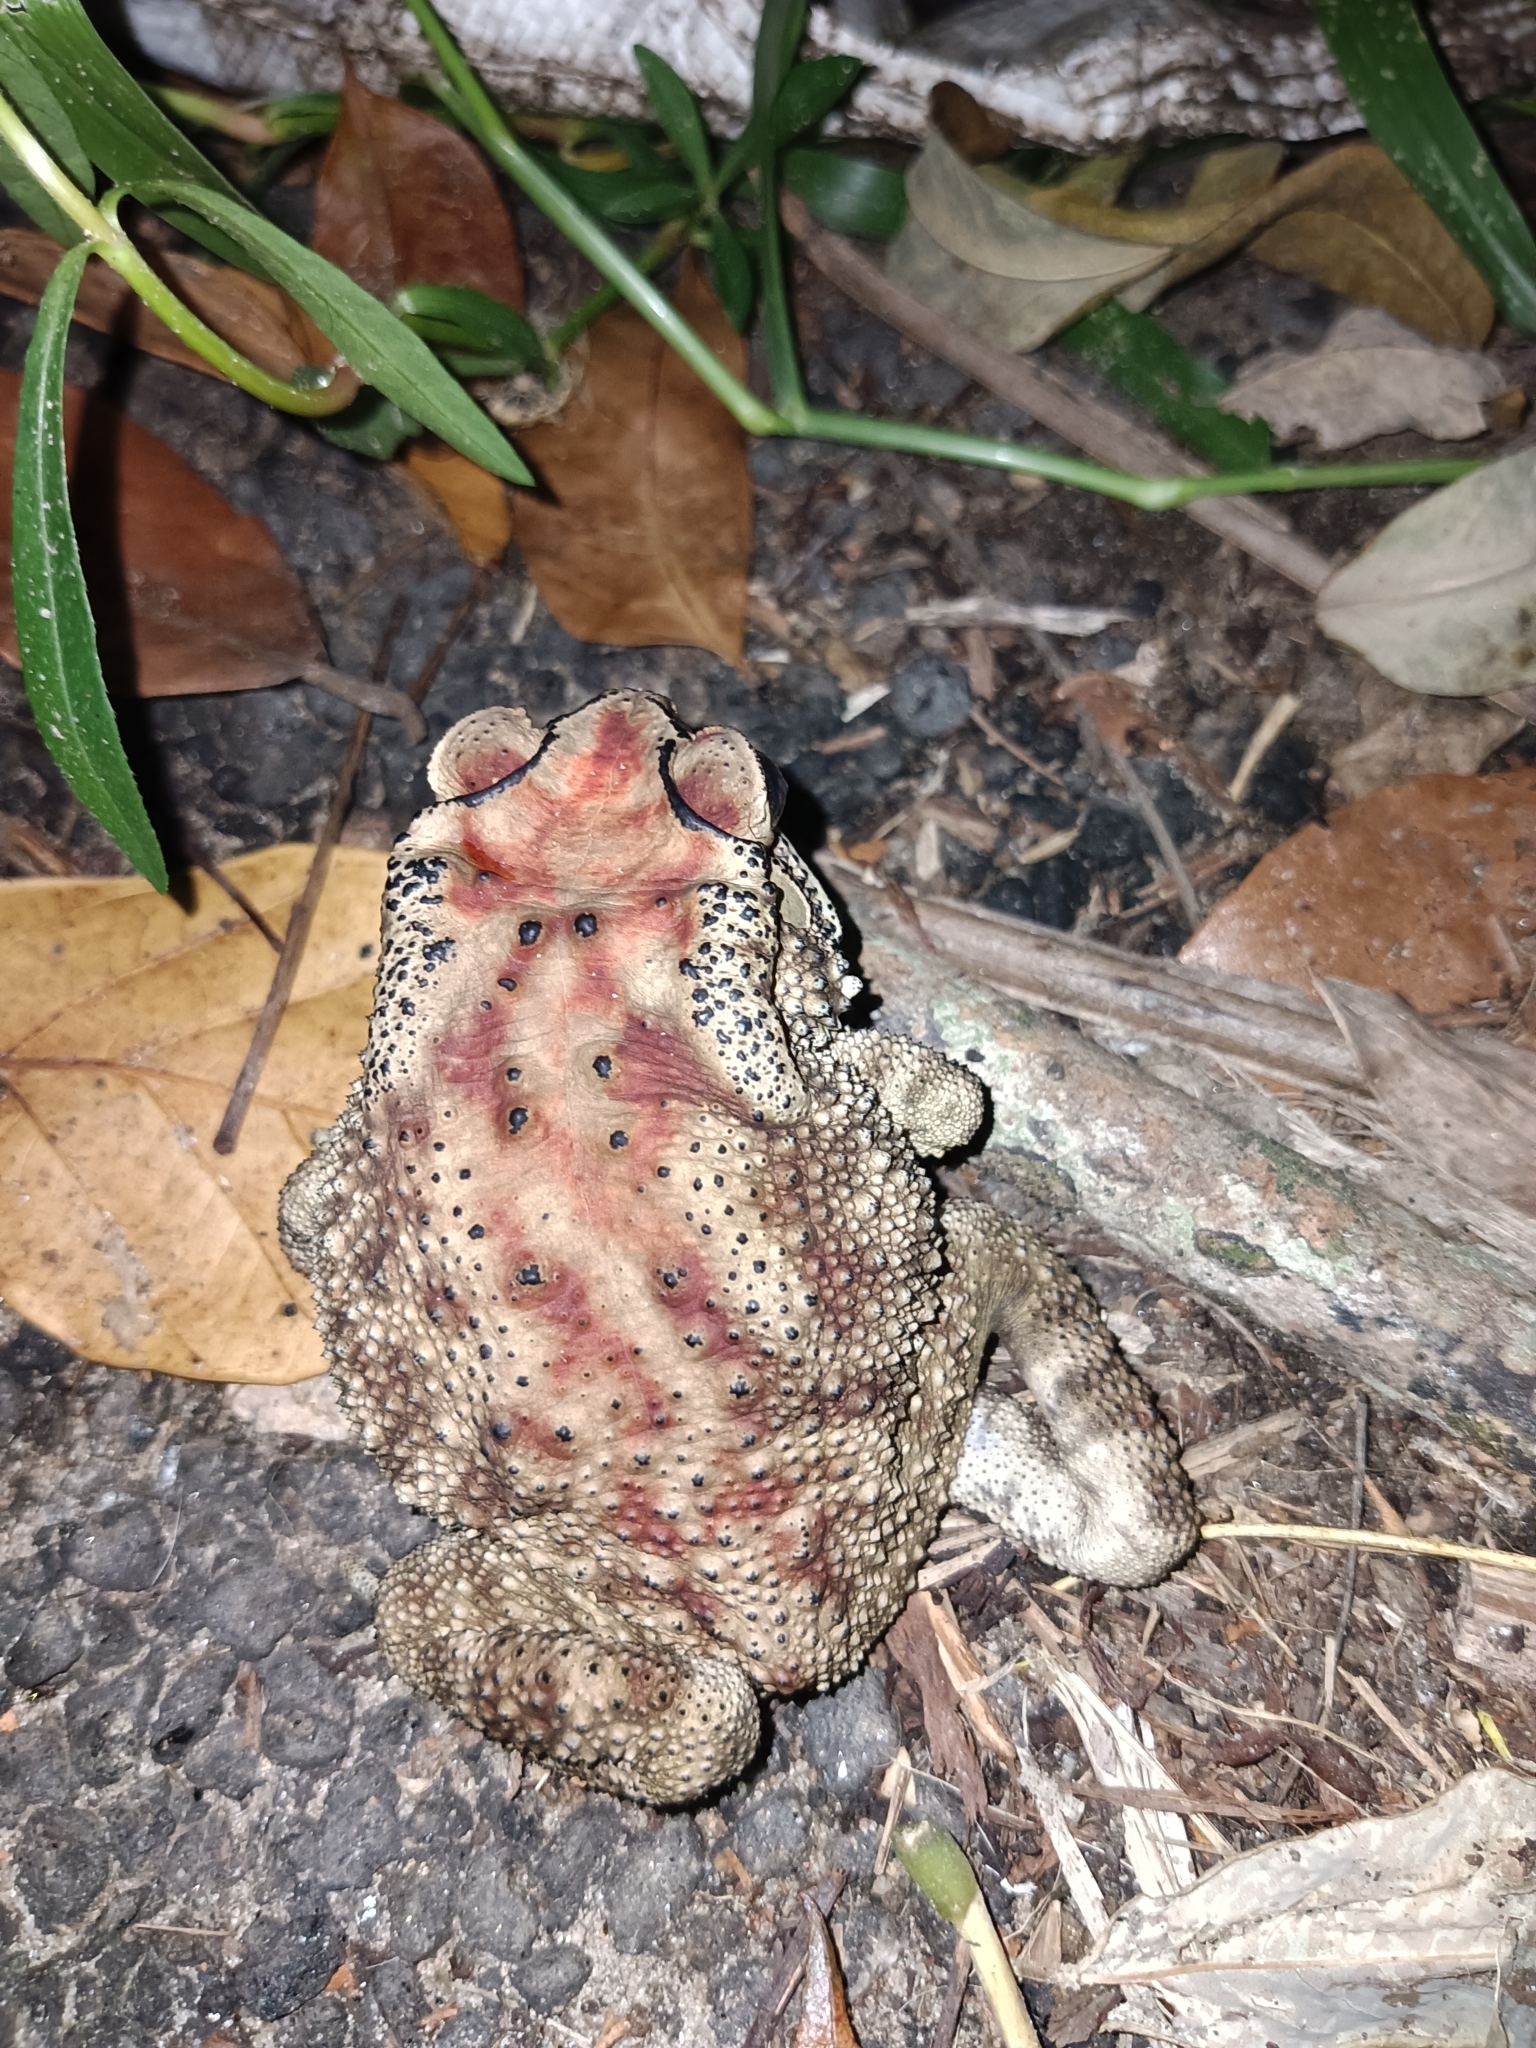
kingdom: Animalia
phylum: Chordata
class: Amphibia
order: Anura
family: Bufonidae
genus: Duttaphrynus
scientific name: Duttaphrynus melanostictus
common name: Common sunda toad
